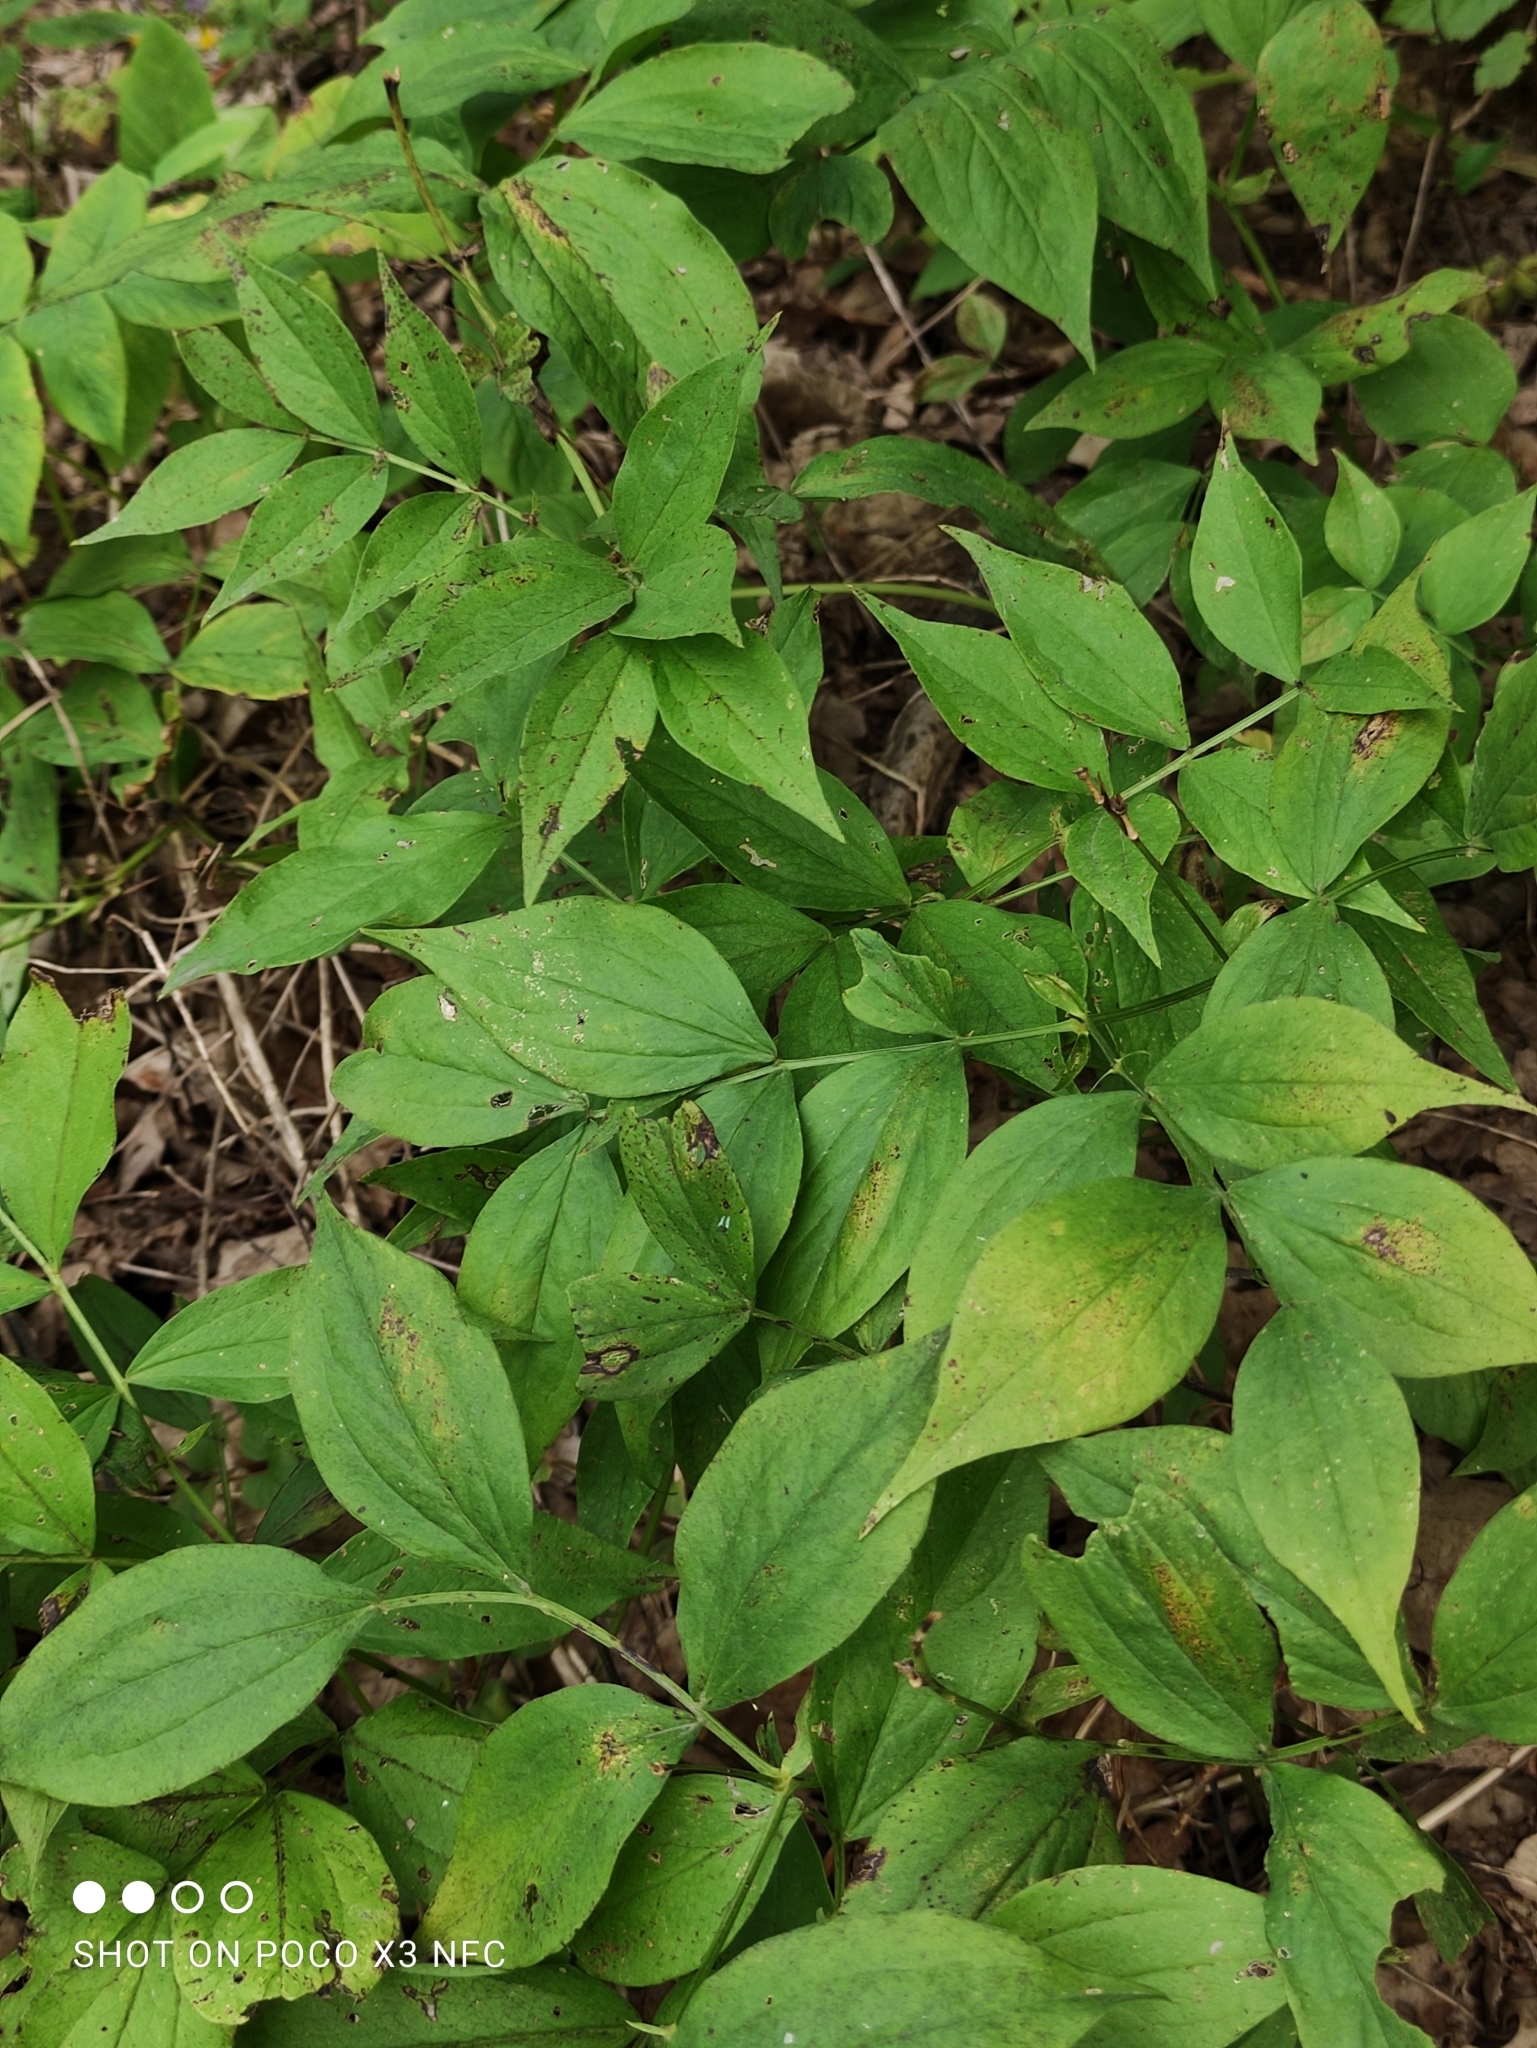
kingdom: Plantae
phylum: Tracheophyta
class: Magnoliopsida
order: Fabales
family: Fabaceae
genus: Lathyrus
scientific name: Lathyrus vernus
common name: Spring pea
